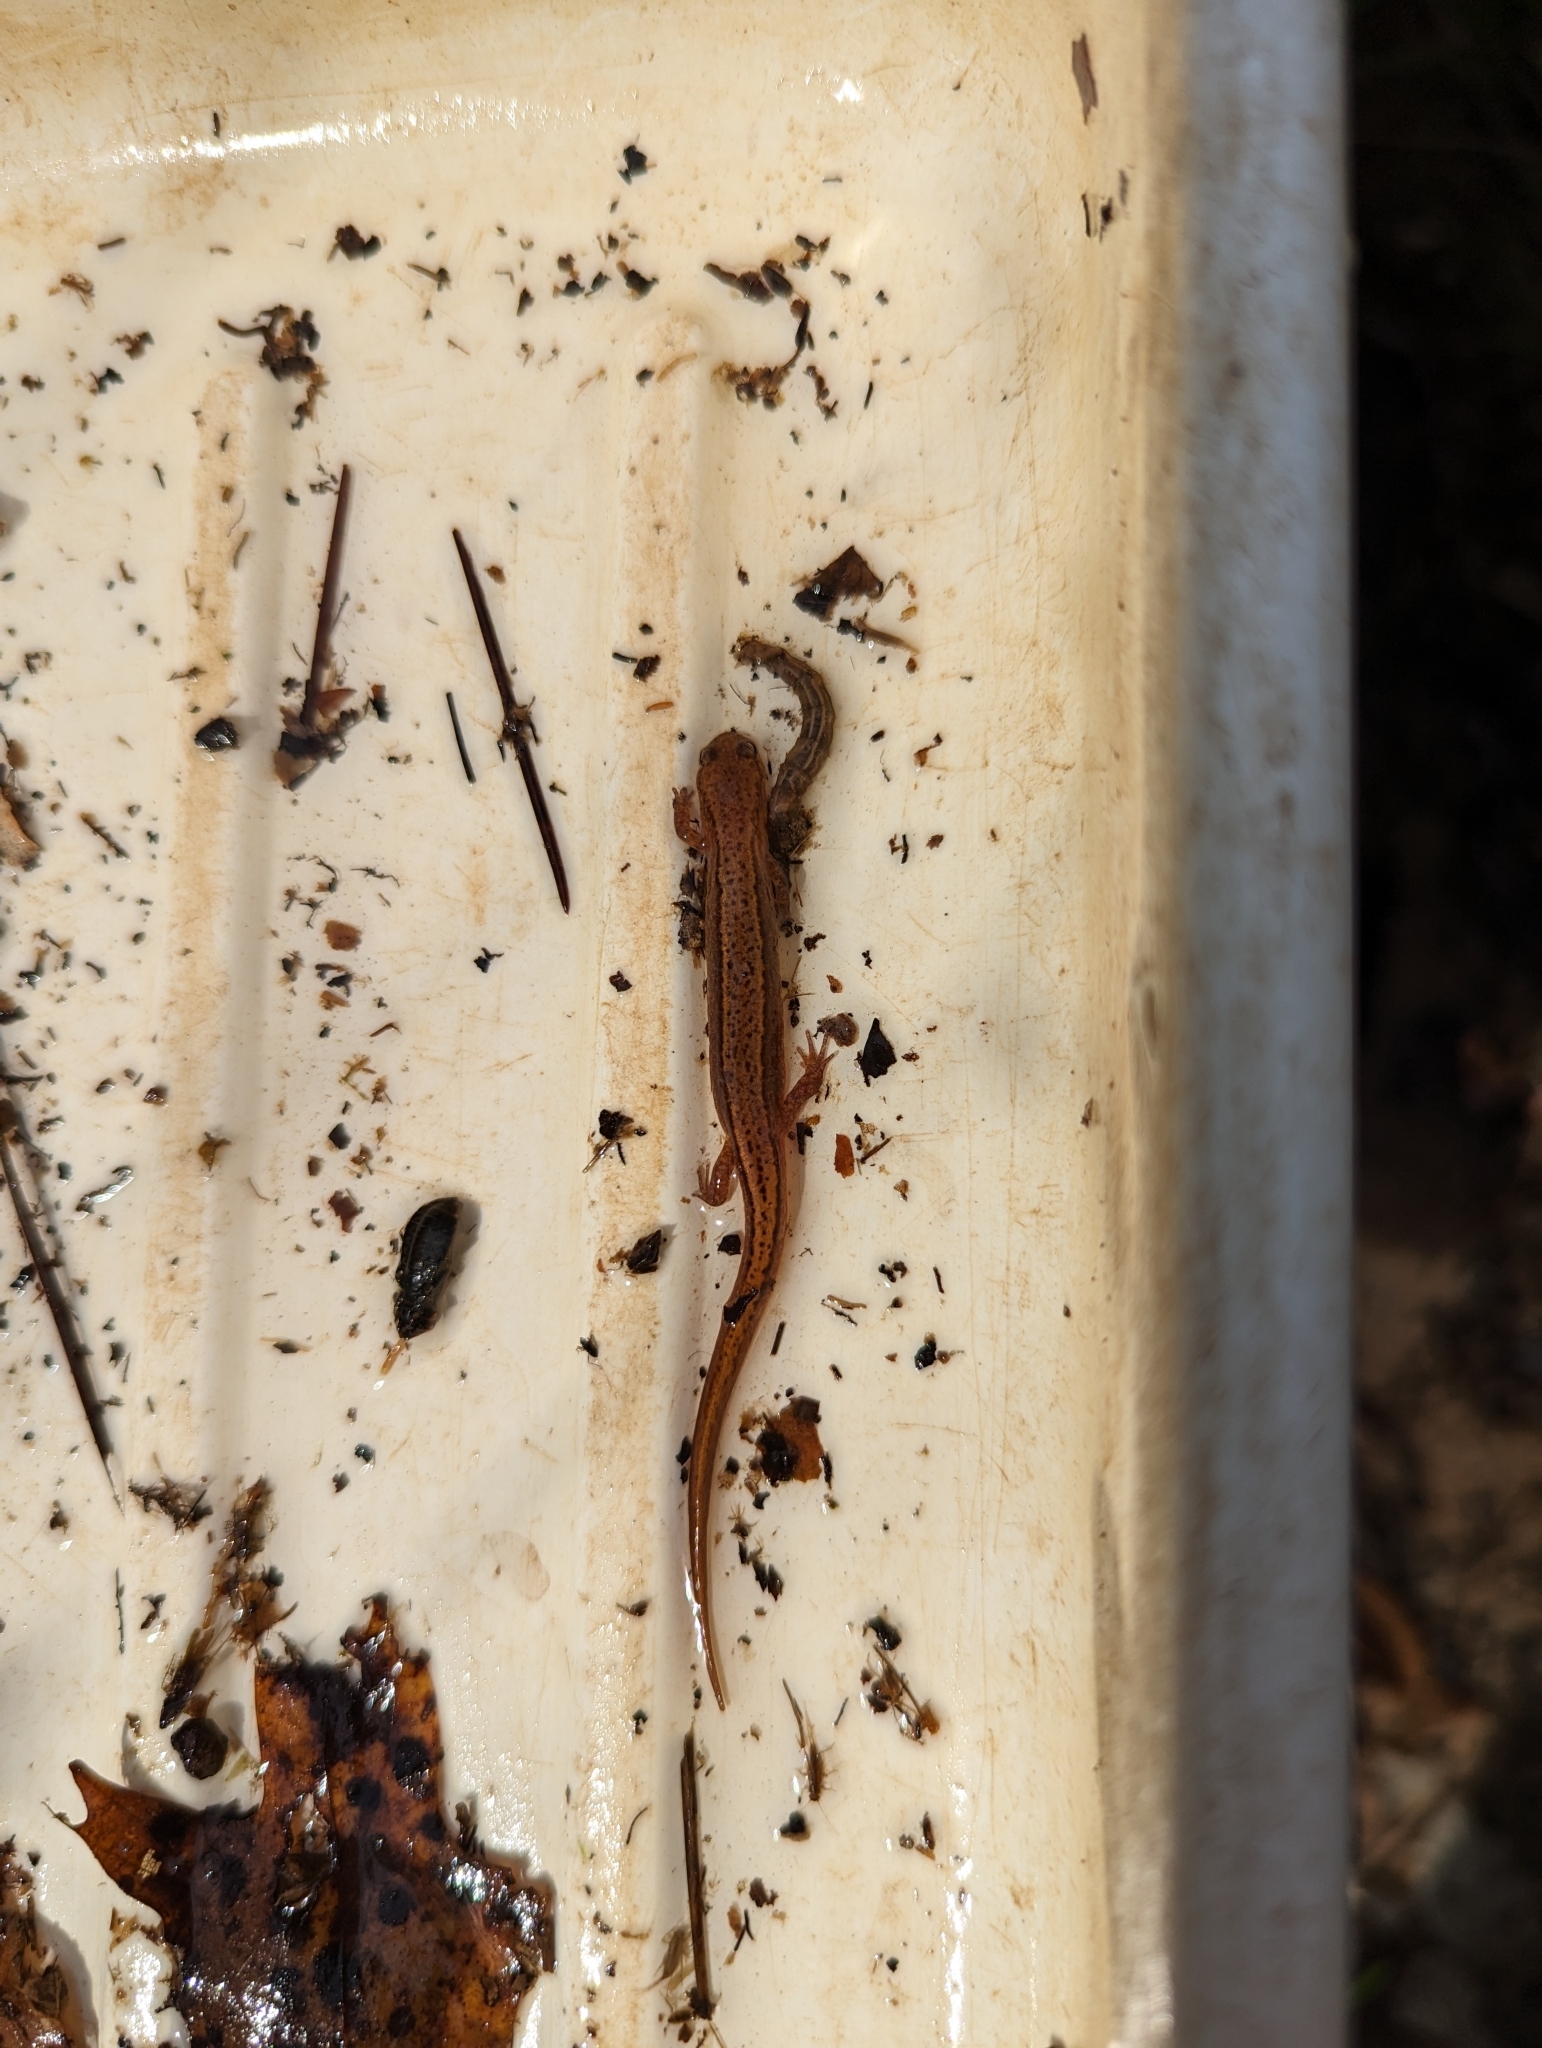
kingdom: Animalia
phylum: Chordata
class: Amphibia
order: Caudata
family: Plethodontidae
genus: Eurycea
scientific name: Eurycea cirrigera
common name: Southern two-lined salamander
